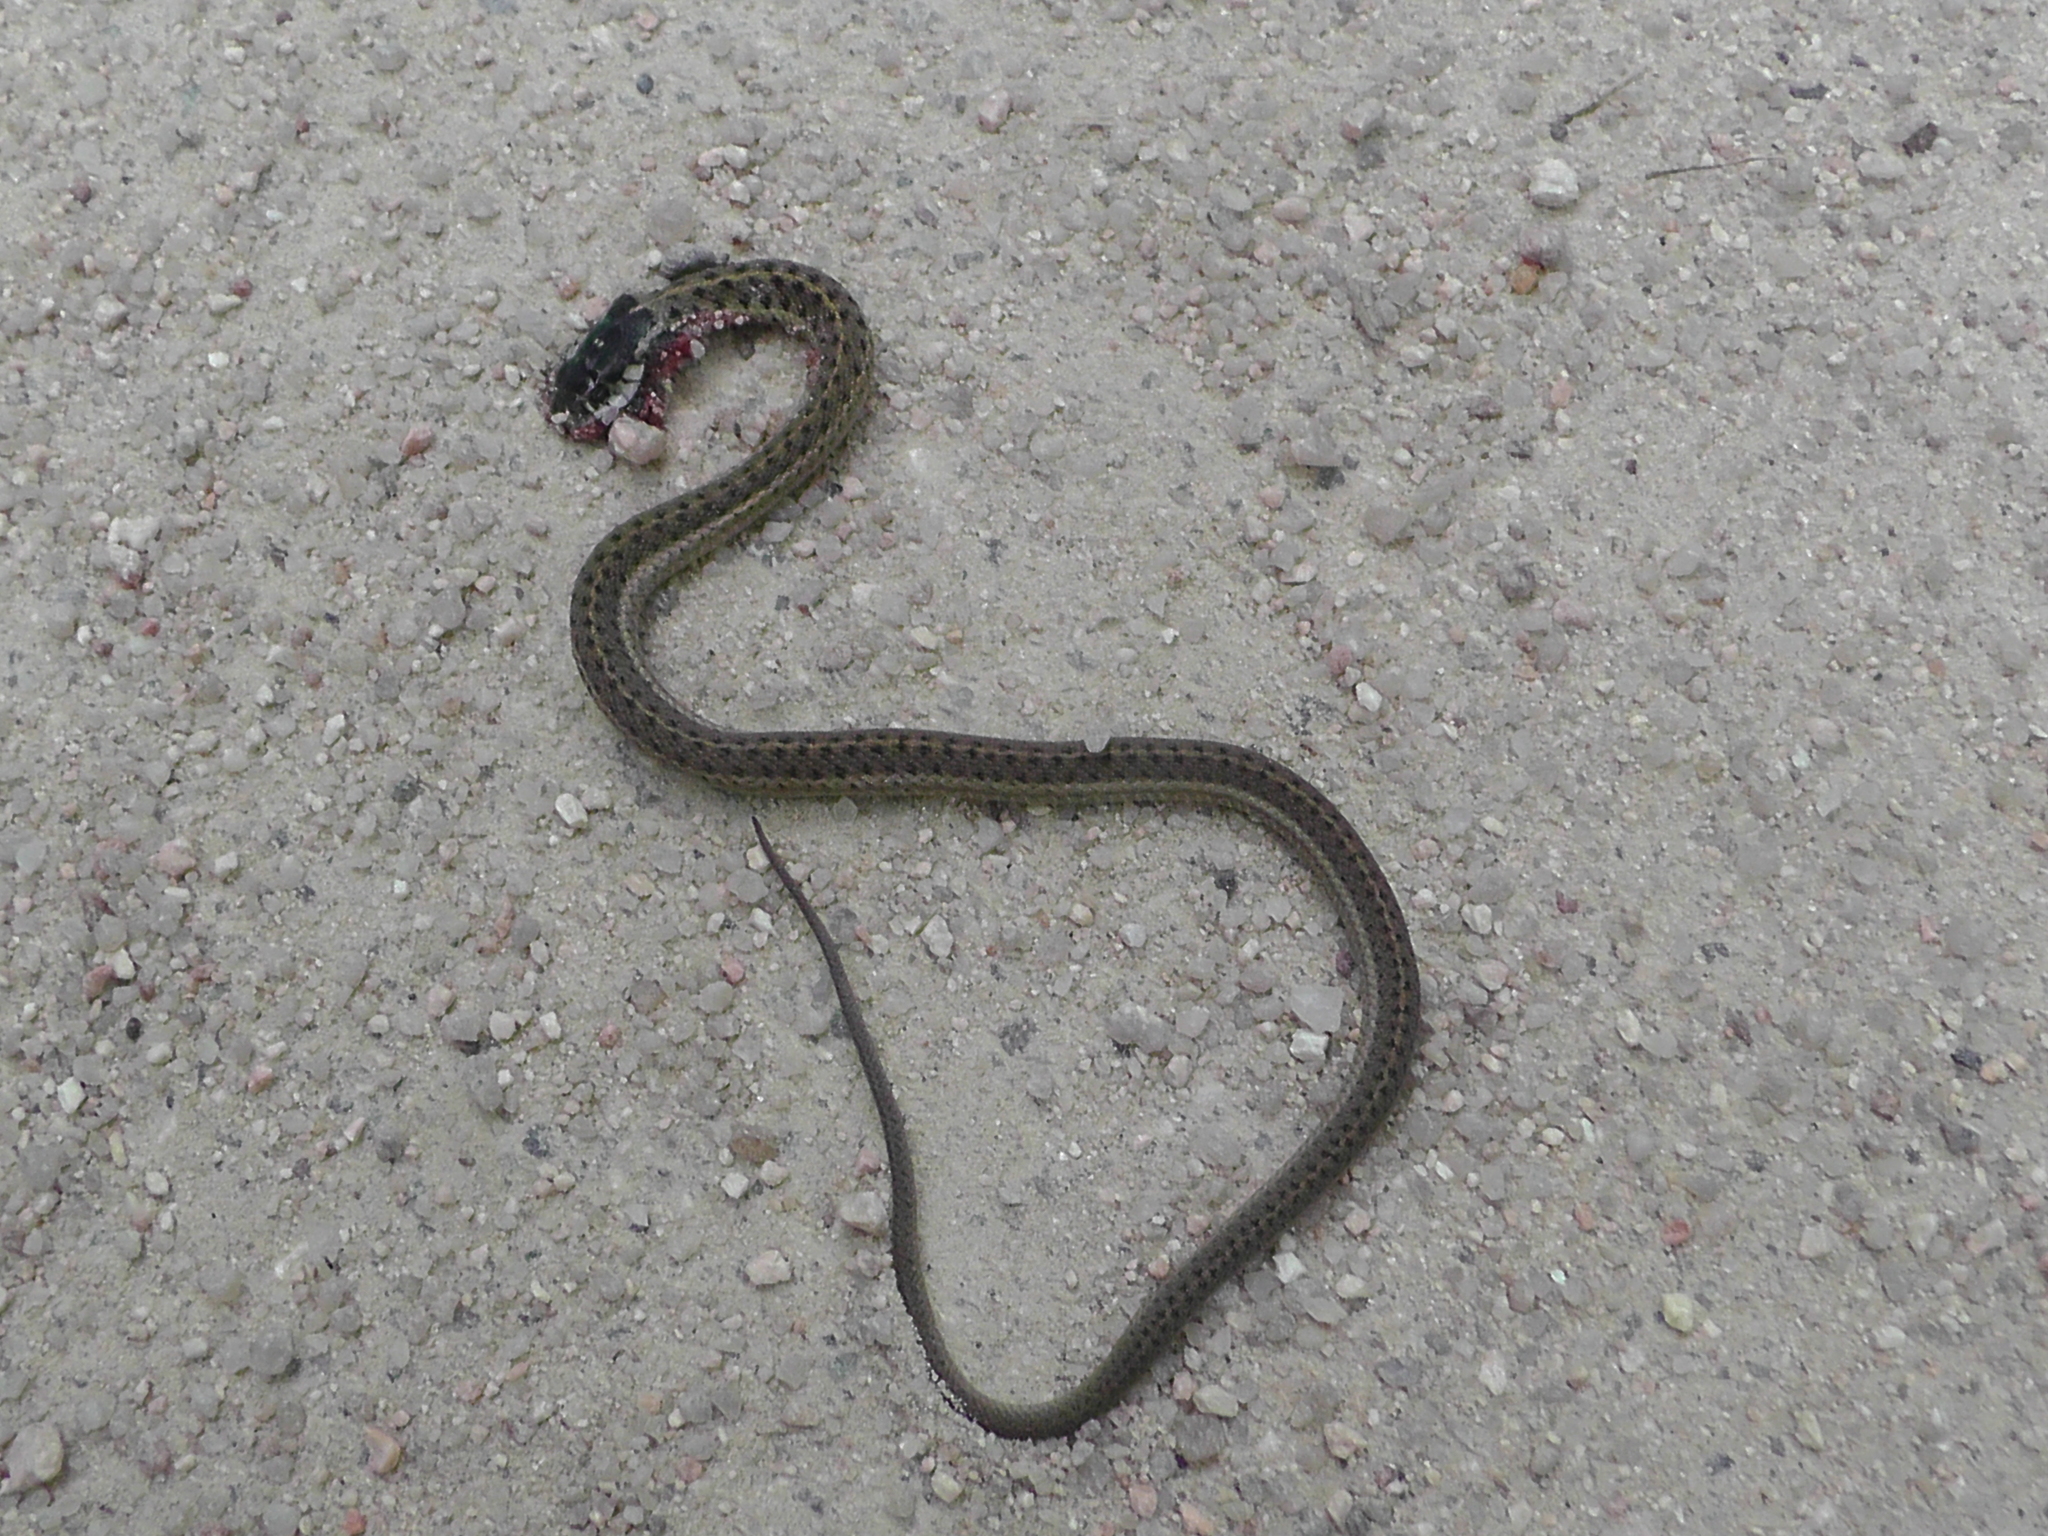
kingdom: Animalia
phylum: Chordata
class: Squamata
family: Colubridae
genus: Thamnophis
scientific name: Thamnophis elegans
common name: Western terrestrial garter snake
